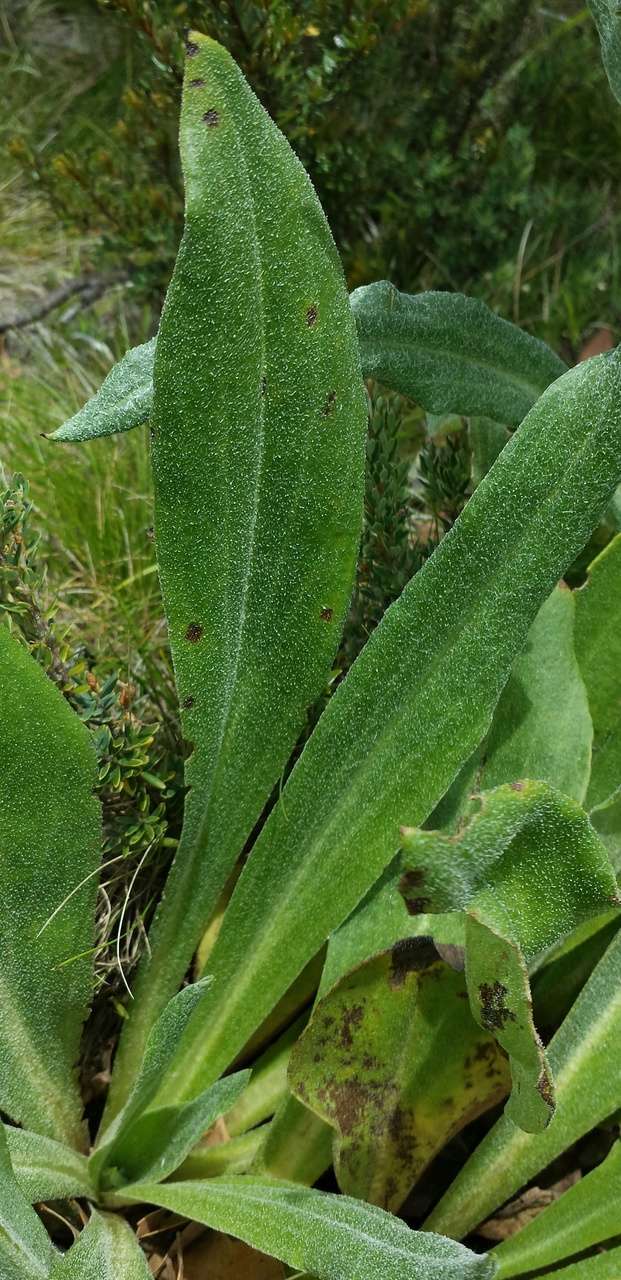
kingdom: Plantae
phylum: Tracheophyta
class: Magnoliopsida
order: Asterales
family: Asteraceae
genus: Podolepis
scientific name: Podolepis robusta
